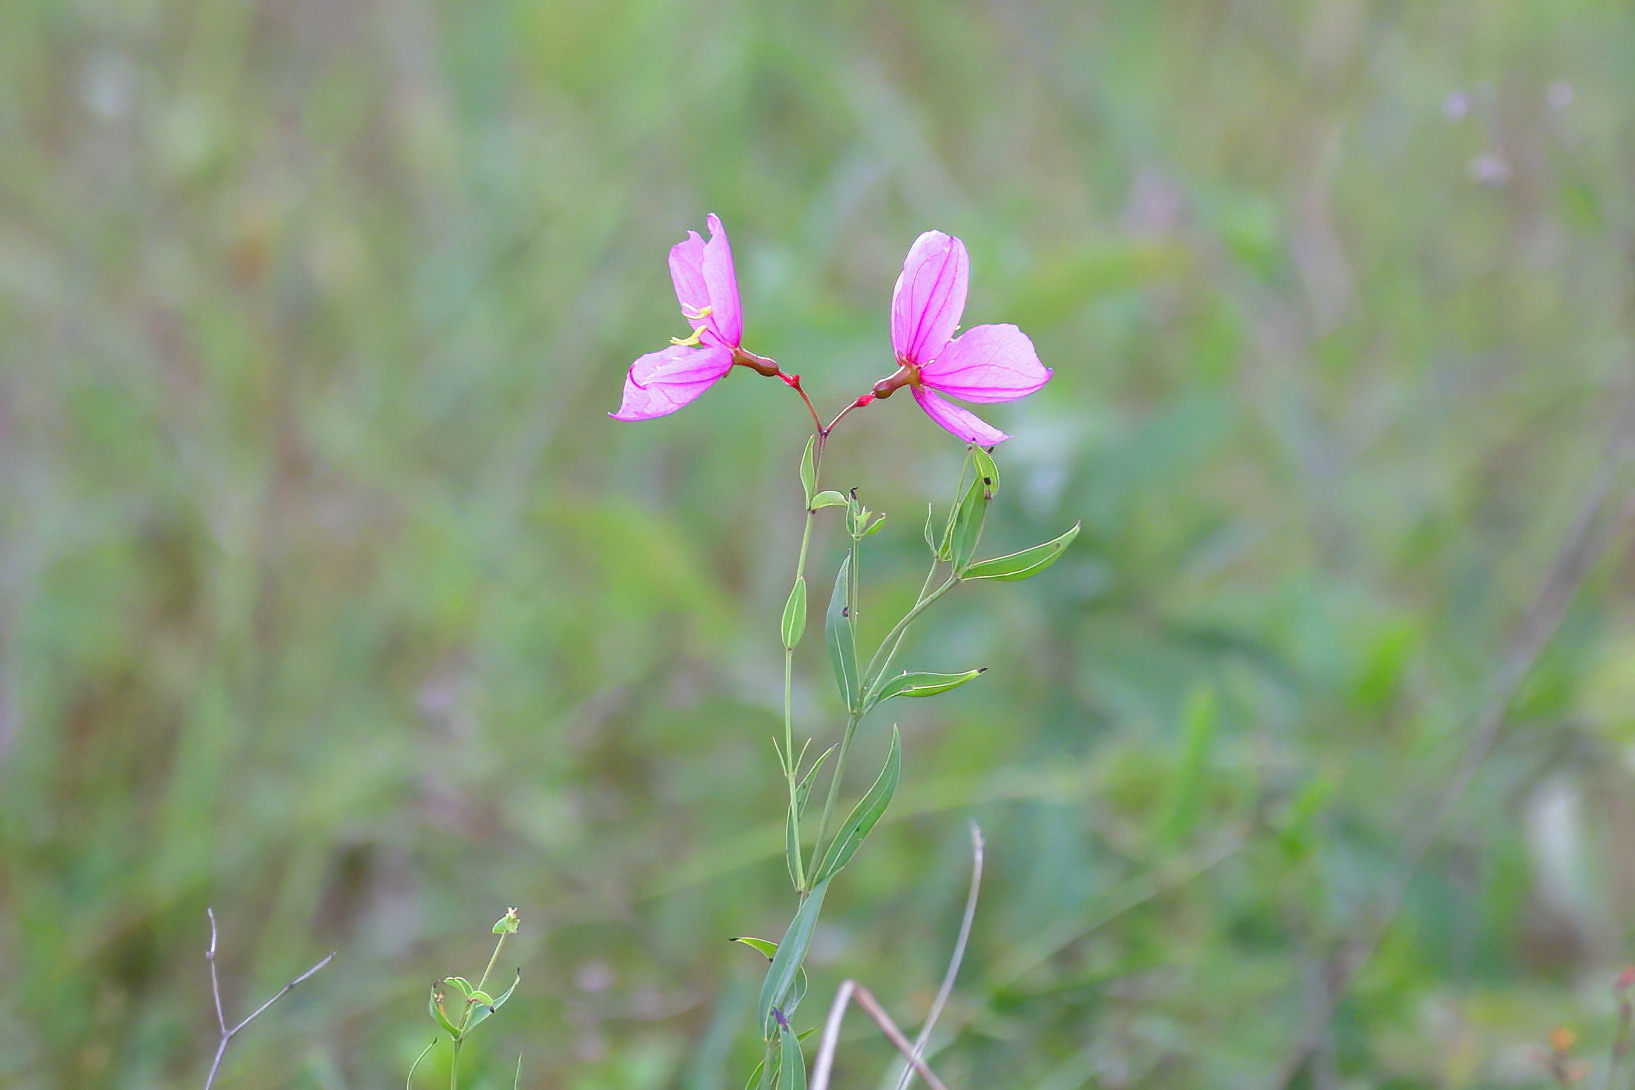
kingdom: Plantae
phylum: Tracheophyta
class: Magnoliopsida
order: Myrtales
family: Melastomataceae
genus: Rhexia
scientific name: Rhexia alifanus
